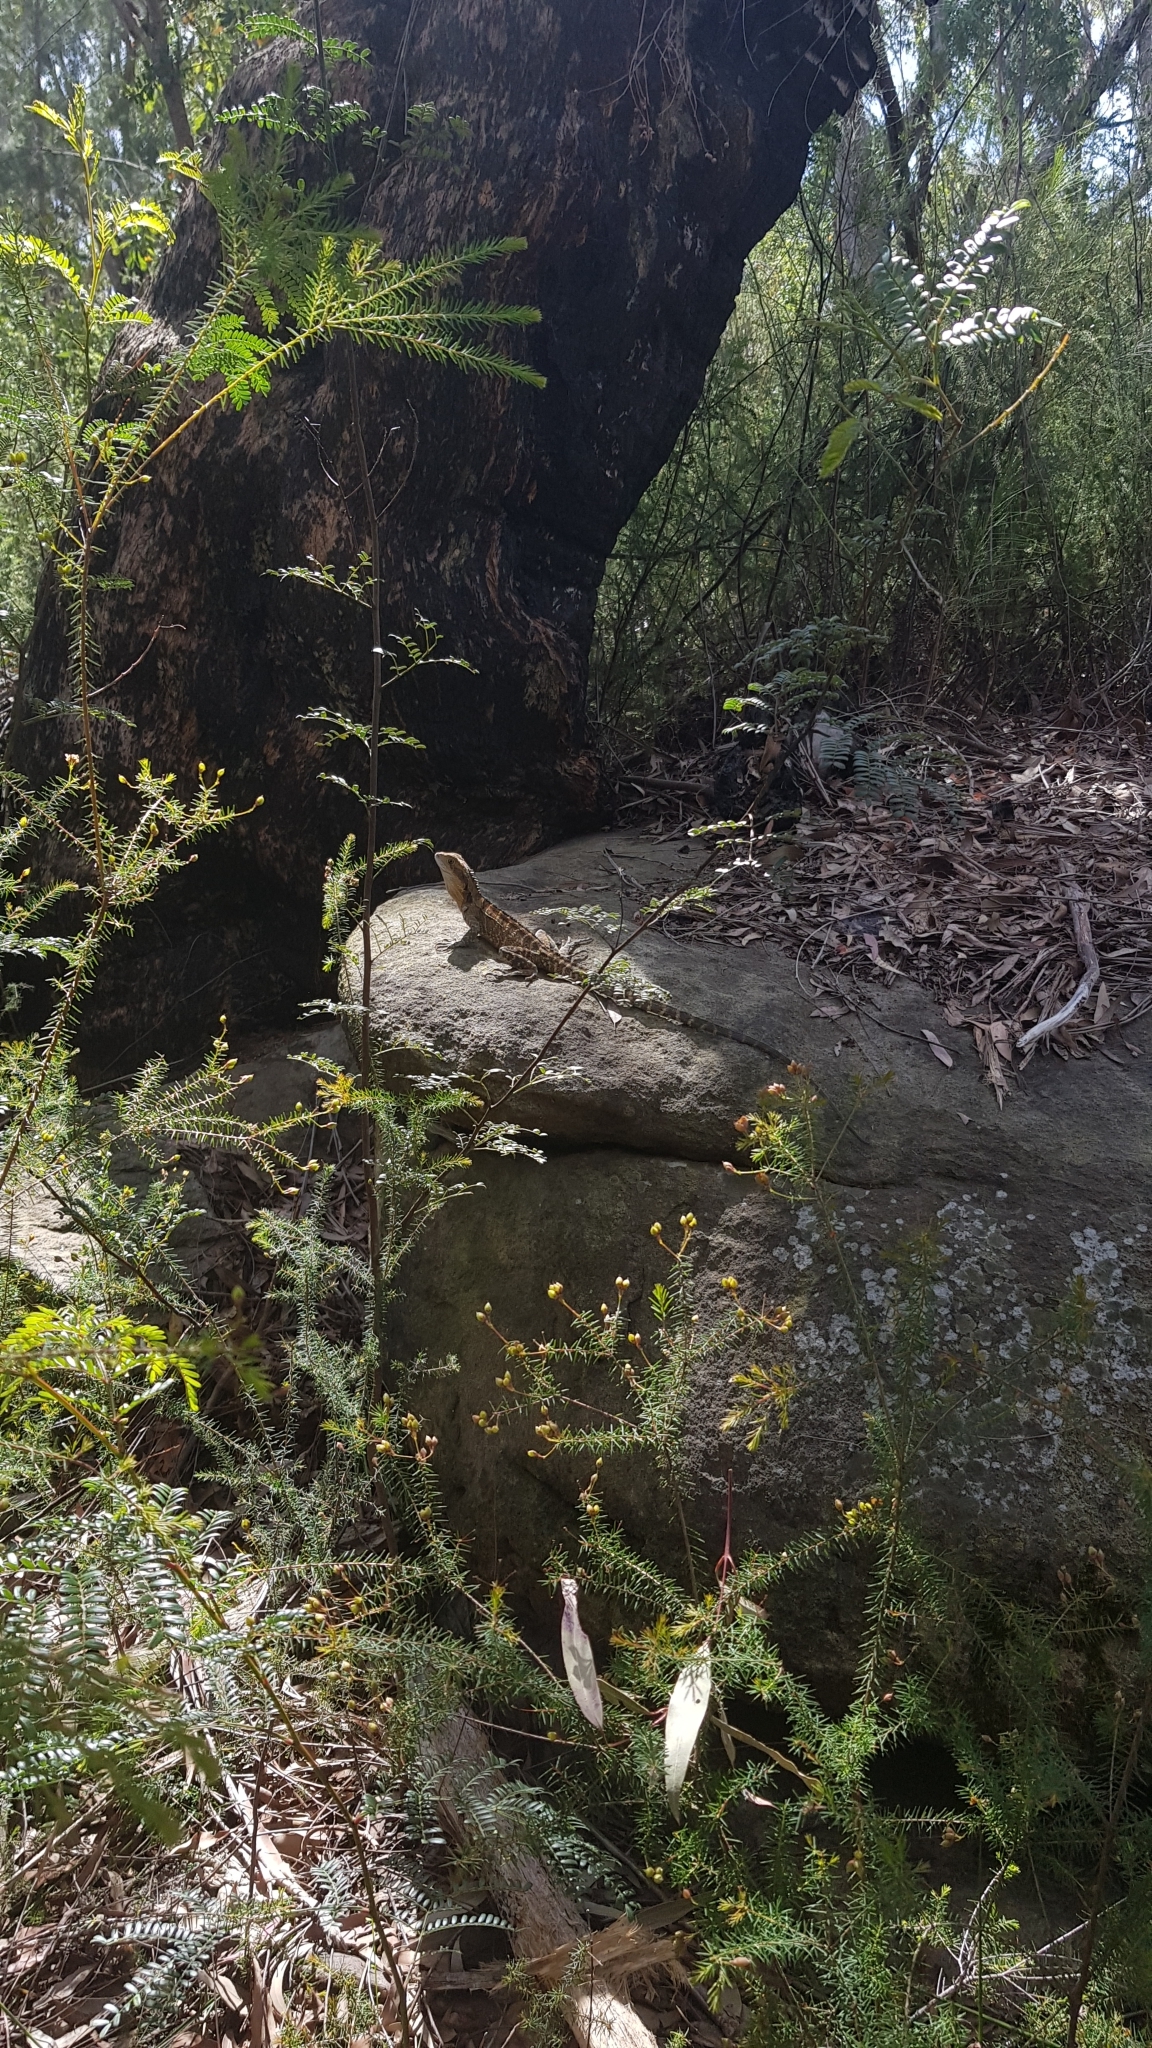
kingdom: Animalia
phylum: Chordata
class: Squamata
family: Agamidae
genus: Intellagama
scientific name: Intellagama lesueurii
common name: Eastern water dragon
